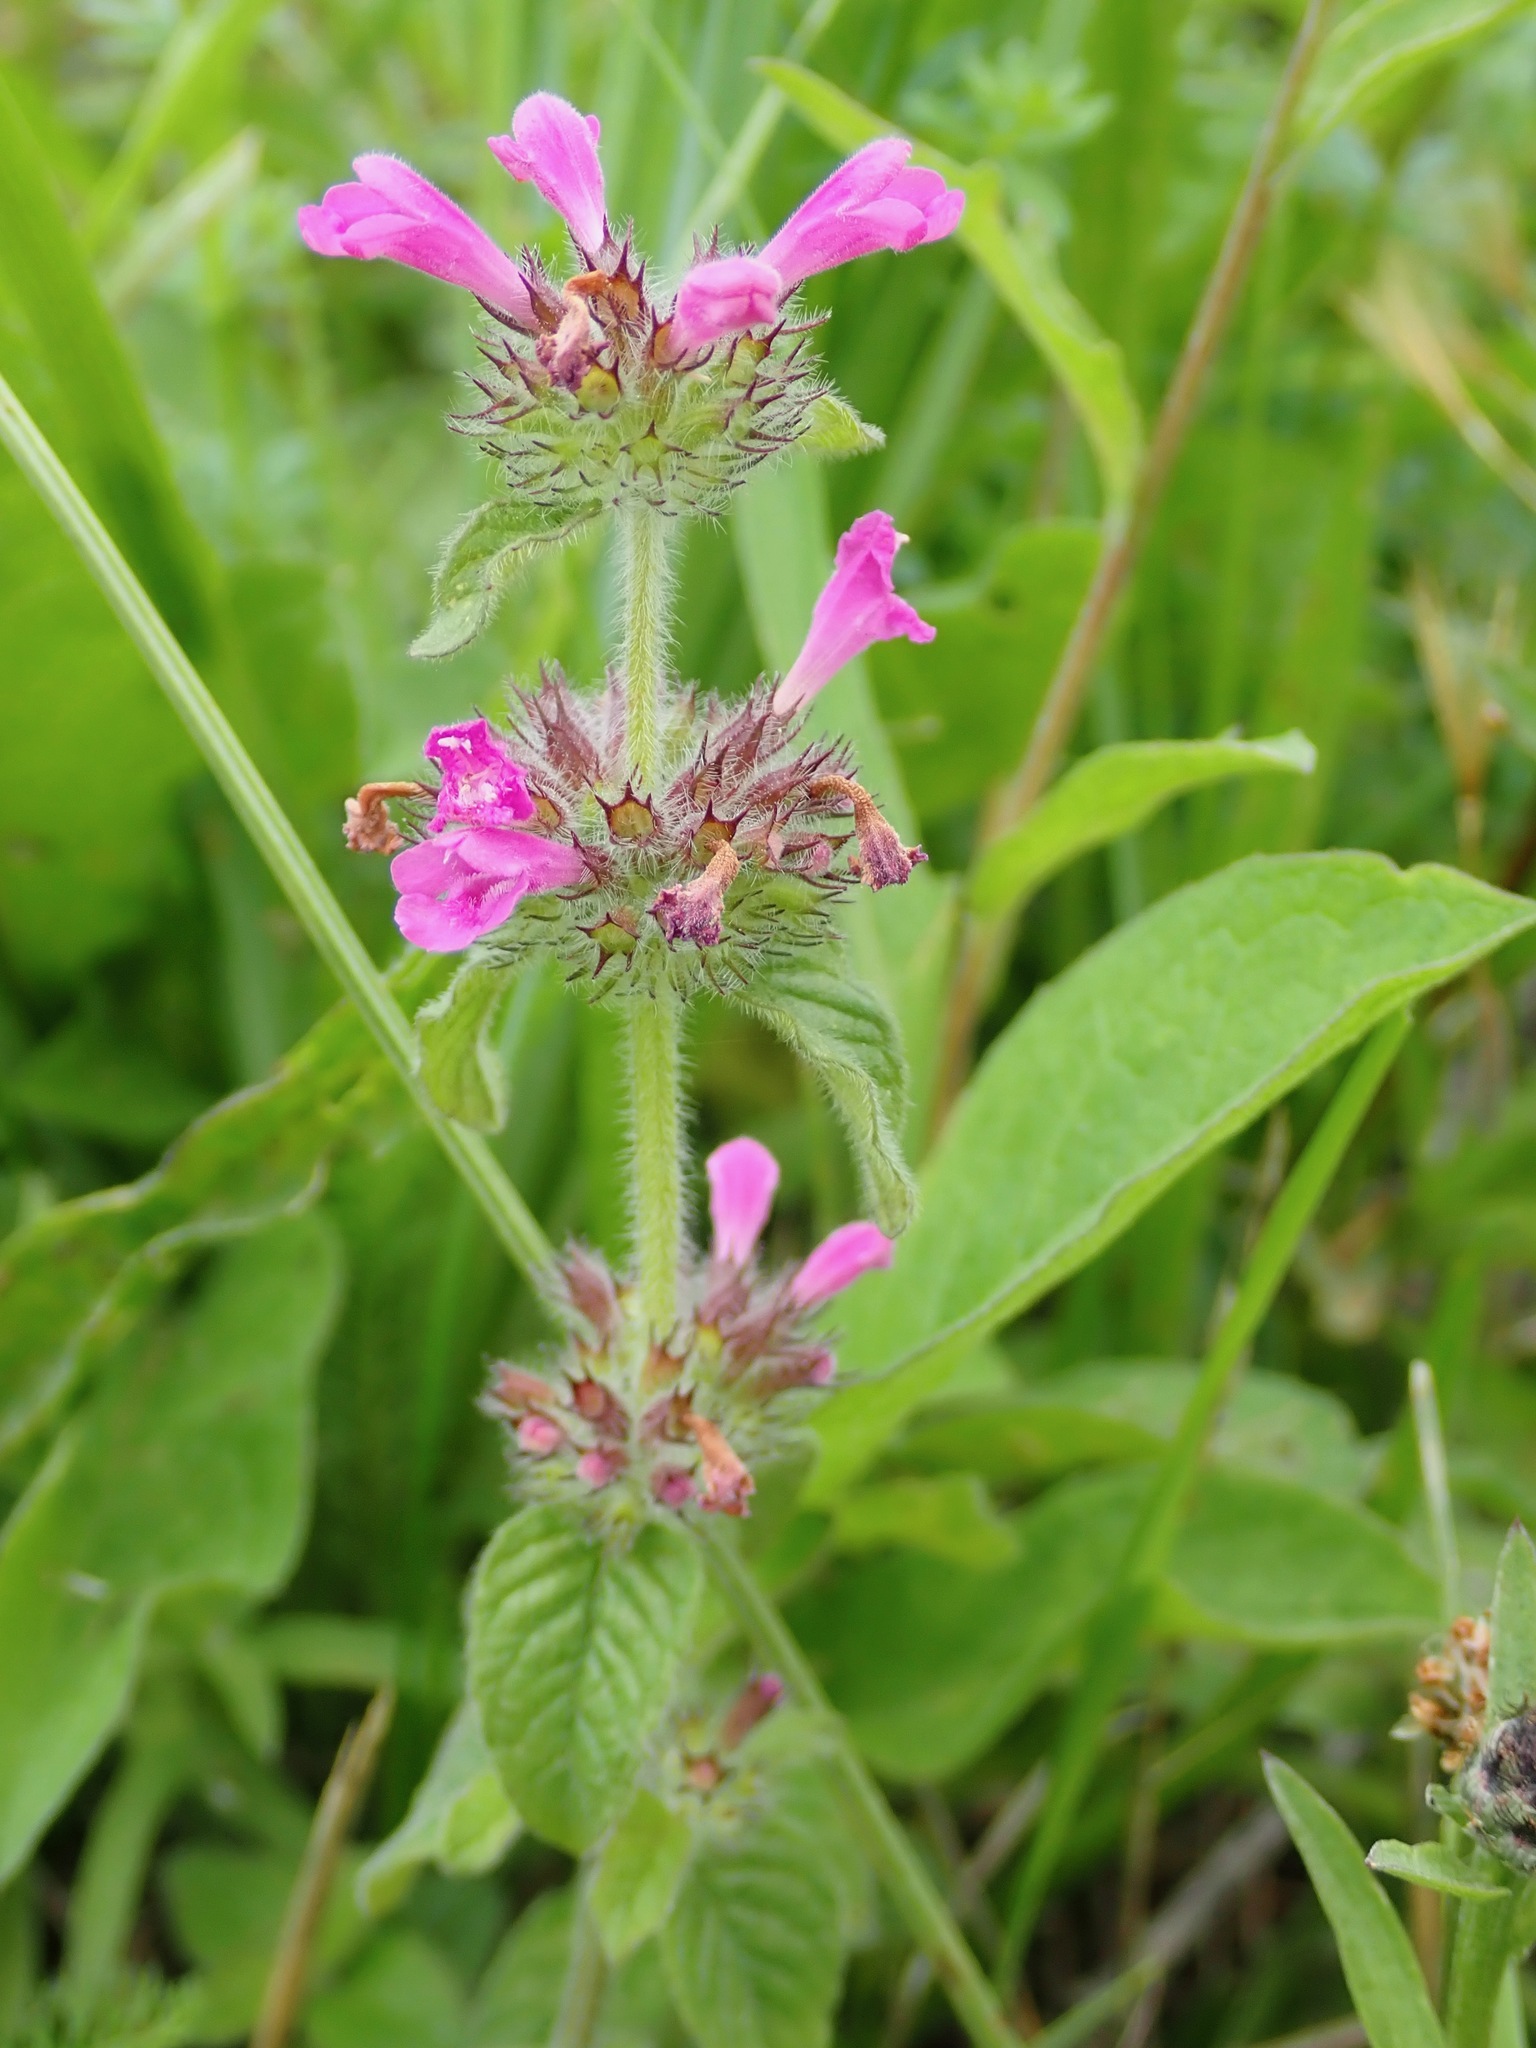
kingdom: Plantae
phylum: Tracheophyta
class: Magnoliopsida
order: Lamiales
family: Lamiaceae
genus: Clinopodium
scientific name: Clinopodium vulgare
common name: Wild basil
